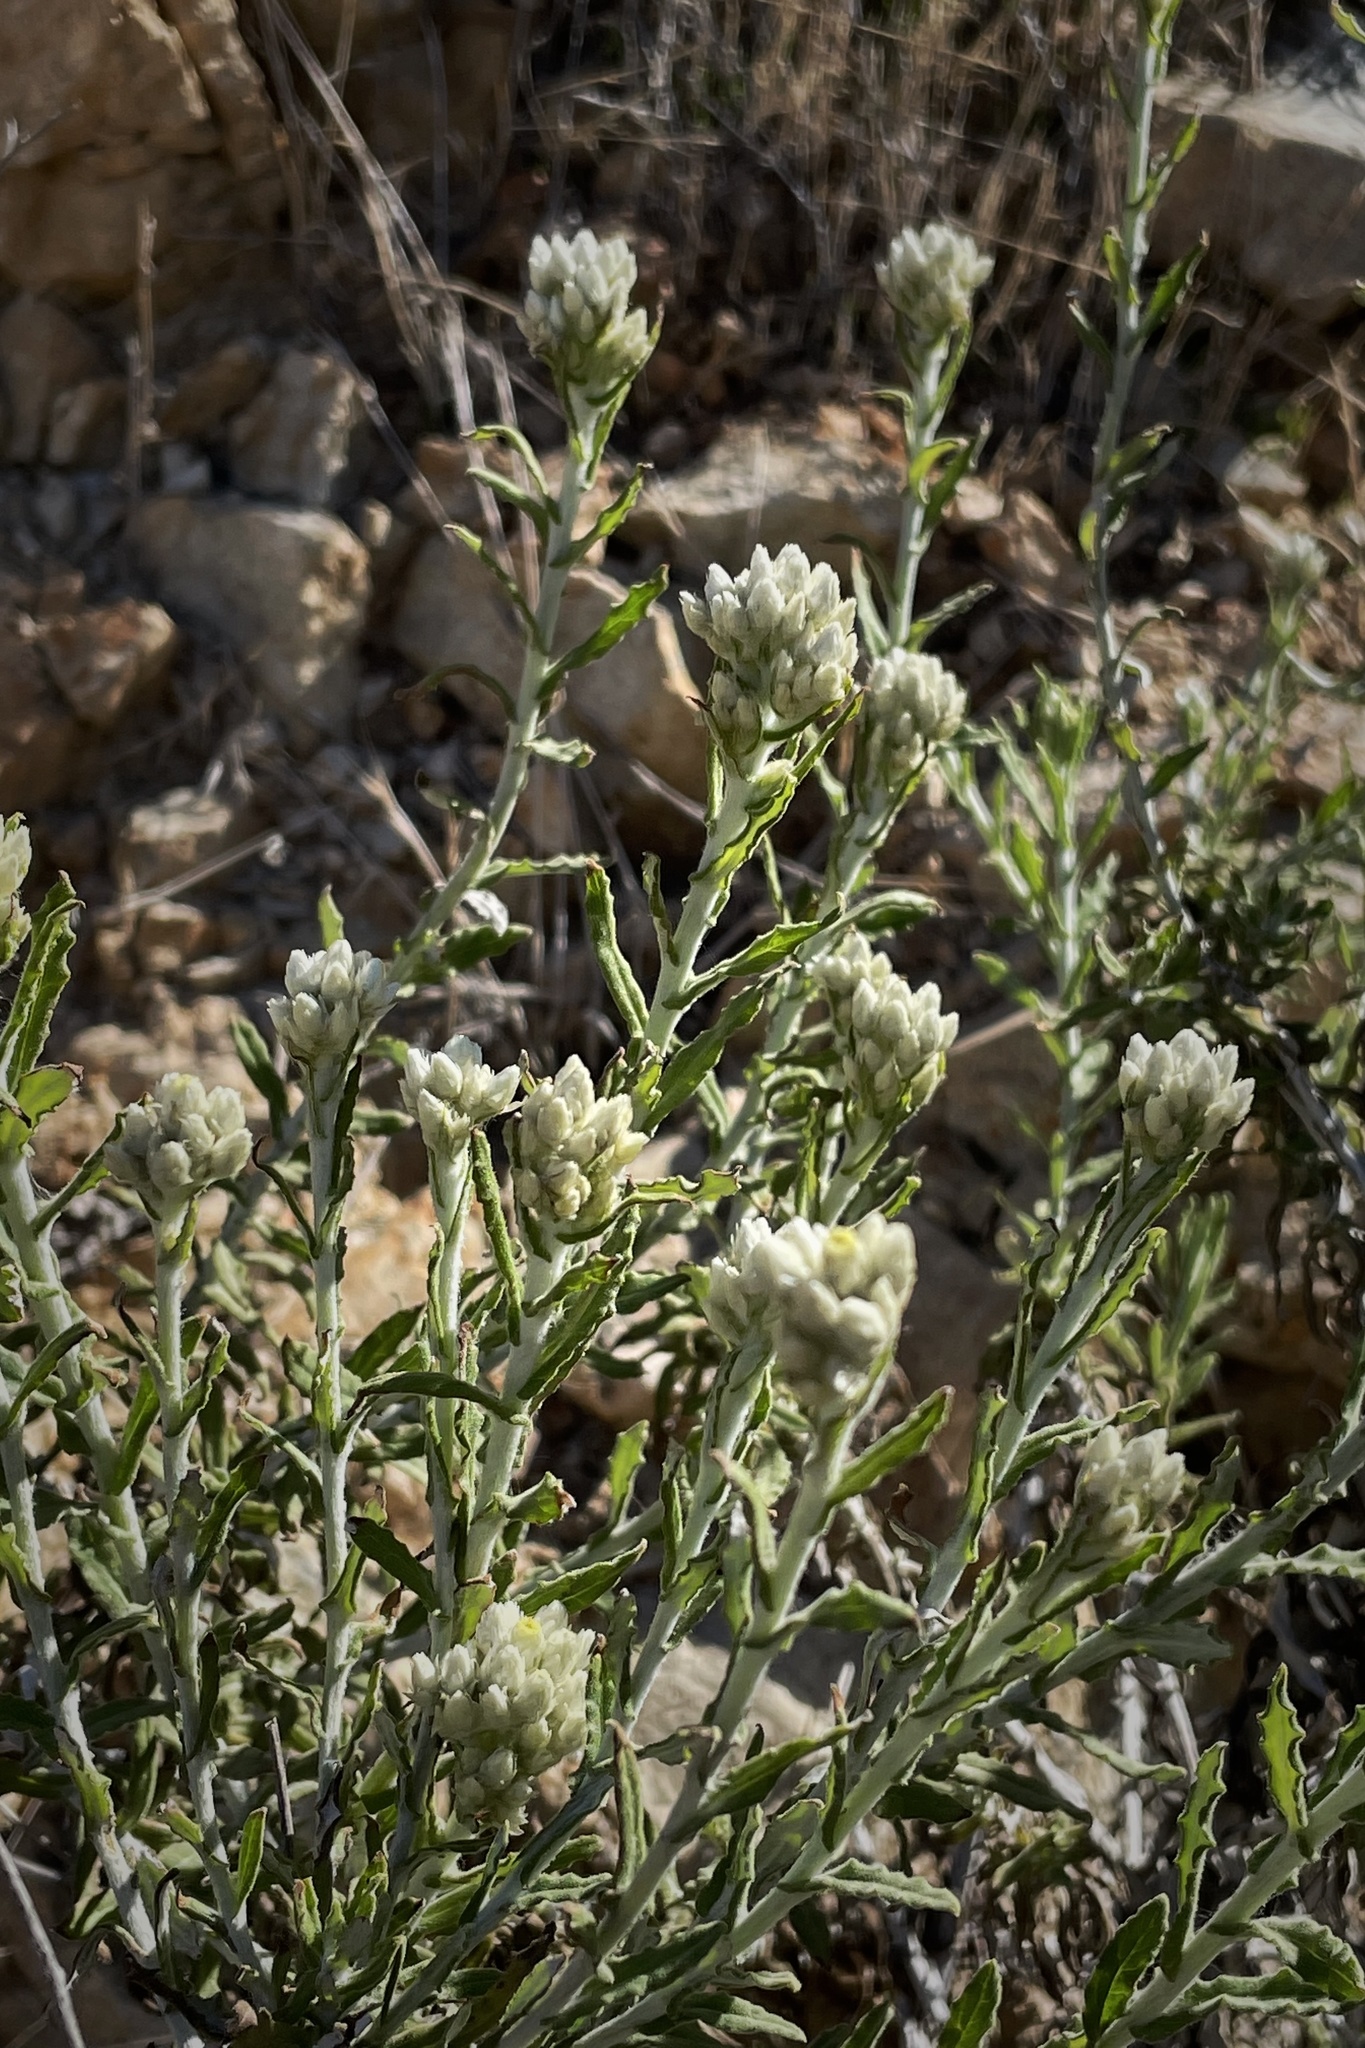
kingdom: Plantae
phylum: Tracheophyta
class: Magnoliopsida
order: Asterales
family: Asteraceae
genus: Pseudognaphalium
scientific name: Pseudognaphalium biolettii
